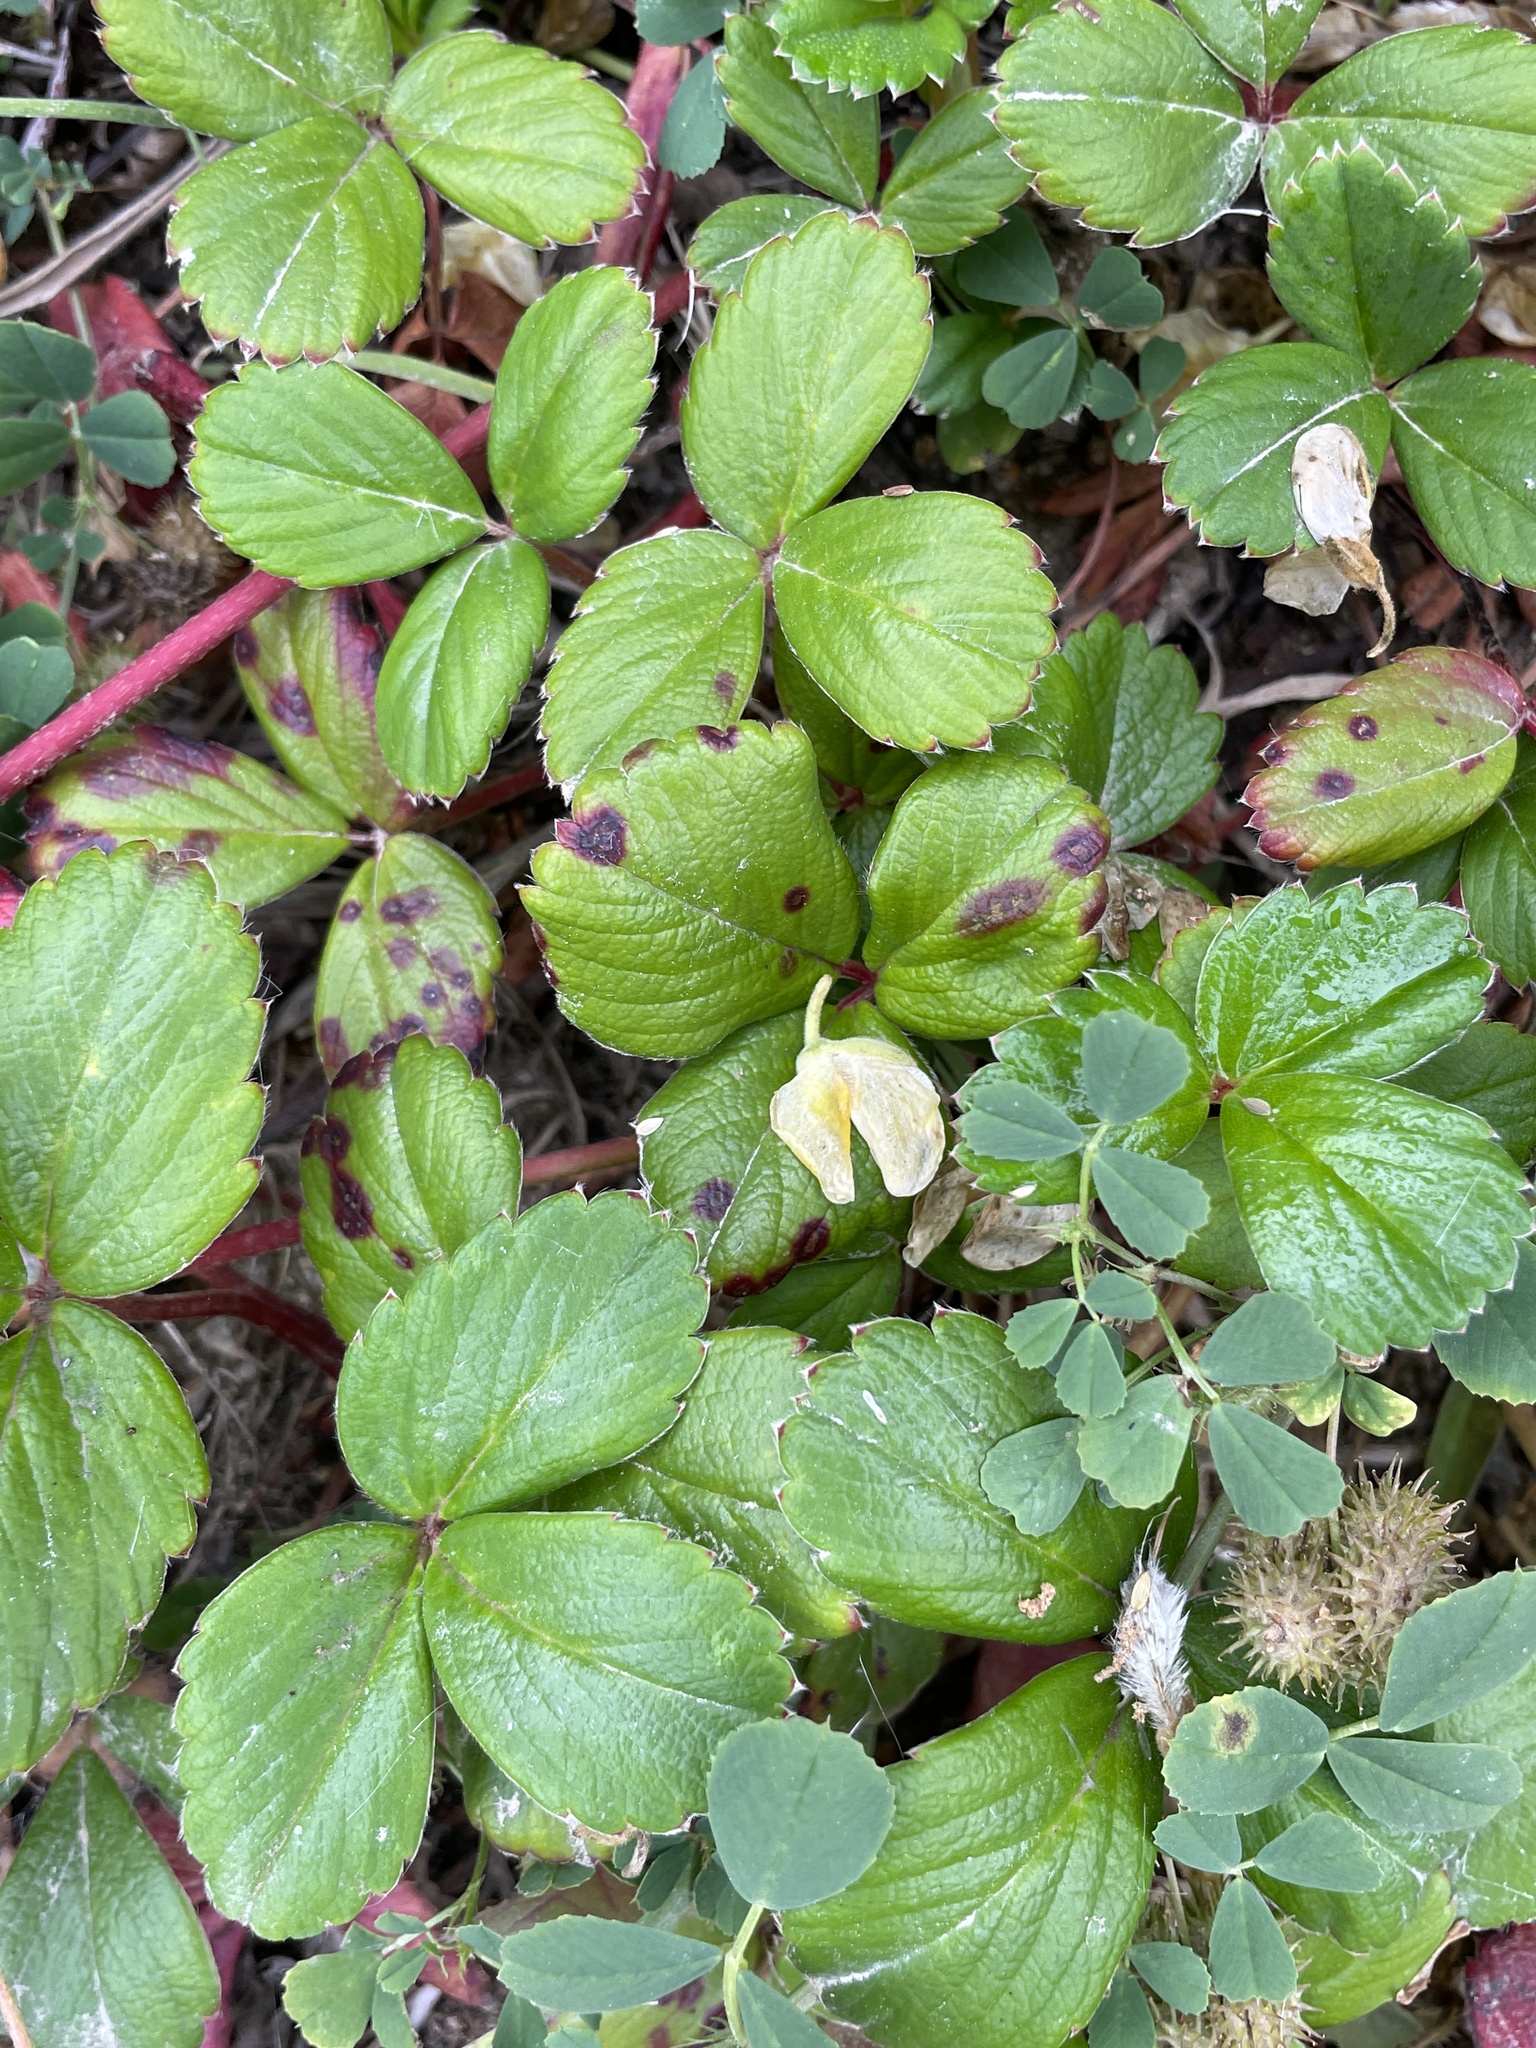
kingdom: Plantae
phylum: Tracheophyta
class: Magnoliopsida
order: Rosales
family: Rosaceae
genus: Fragaria
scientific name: Fragaria chiloensis
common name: Beach strawberry
